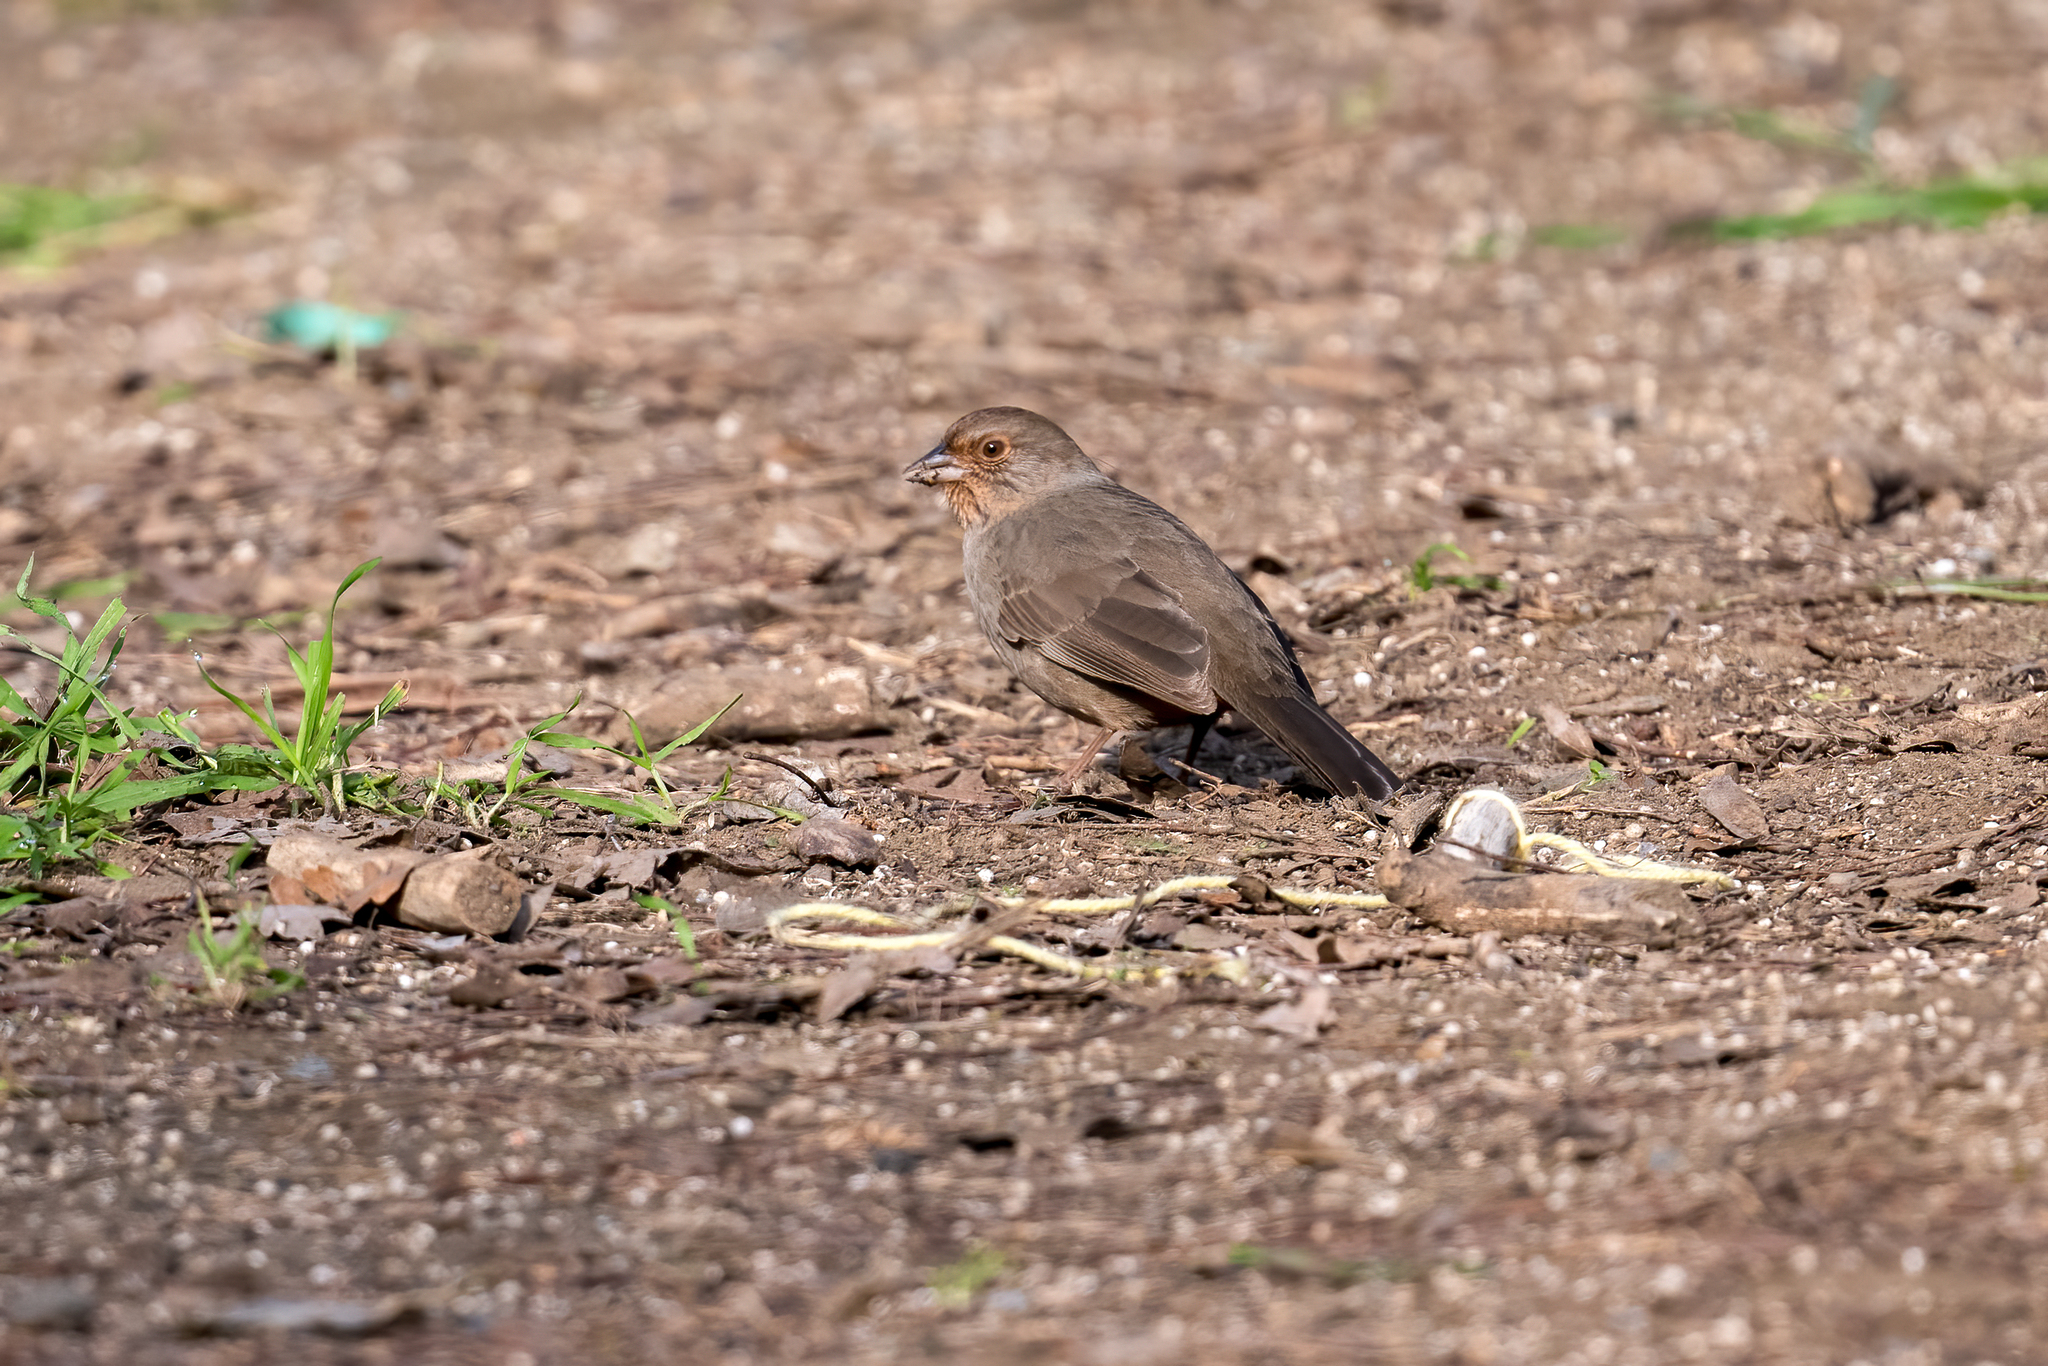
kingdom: Animalia
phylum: Chordata
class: Aves
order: Passeriformes
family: Passerellidae
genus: Melozone
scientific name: Melozone crissalis
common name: California towhee
